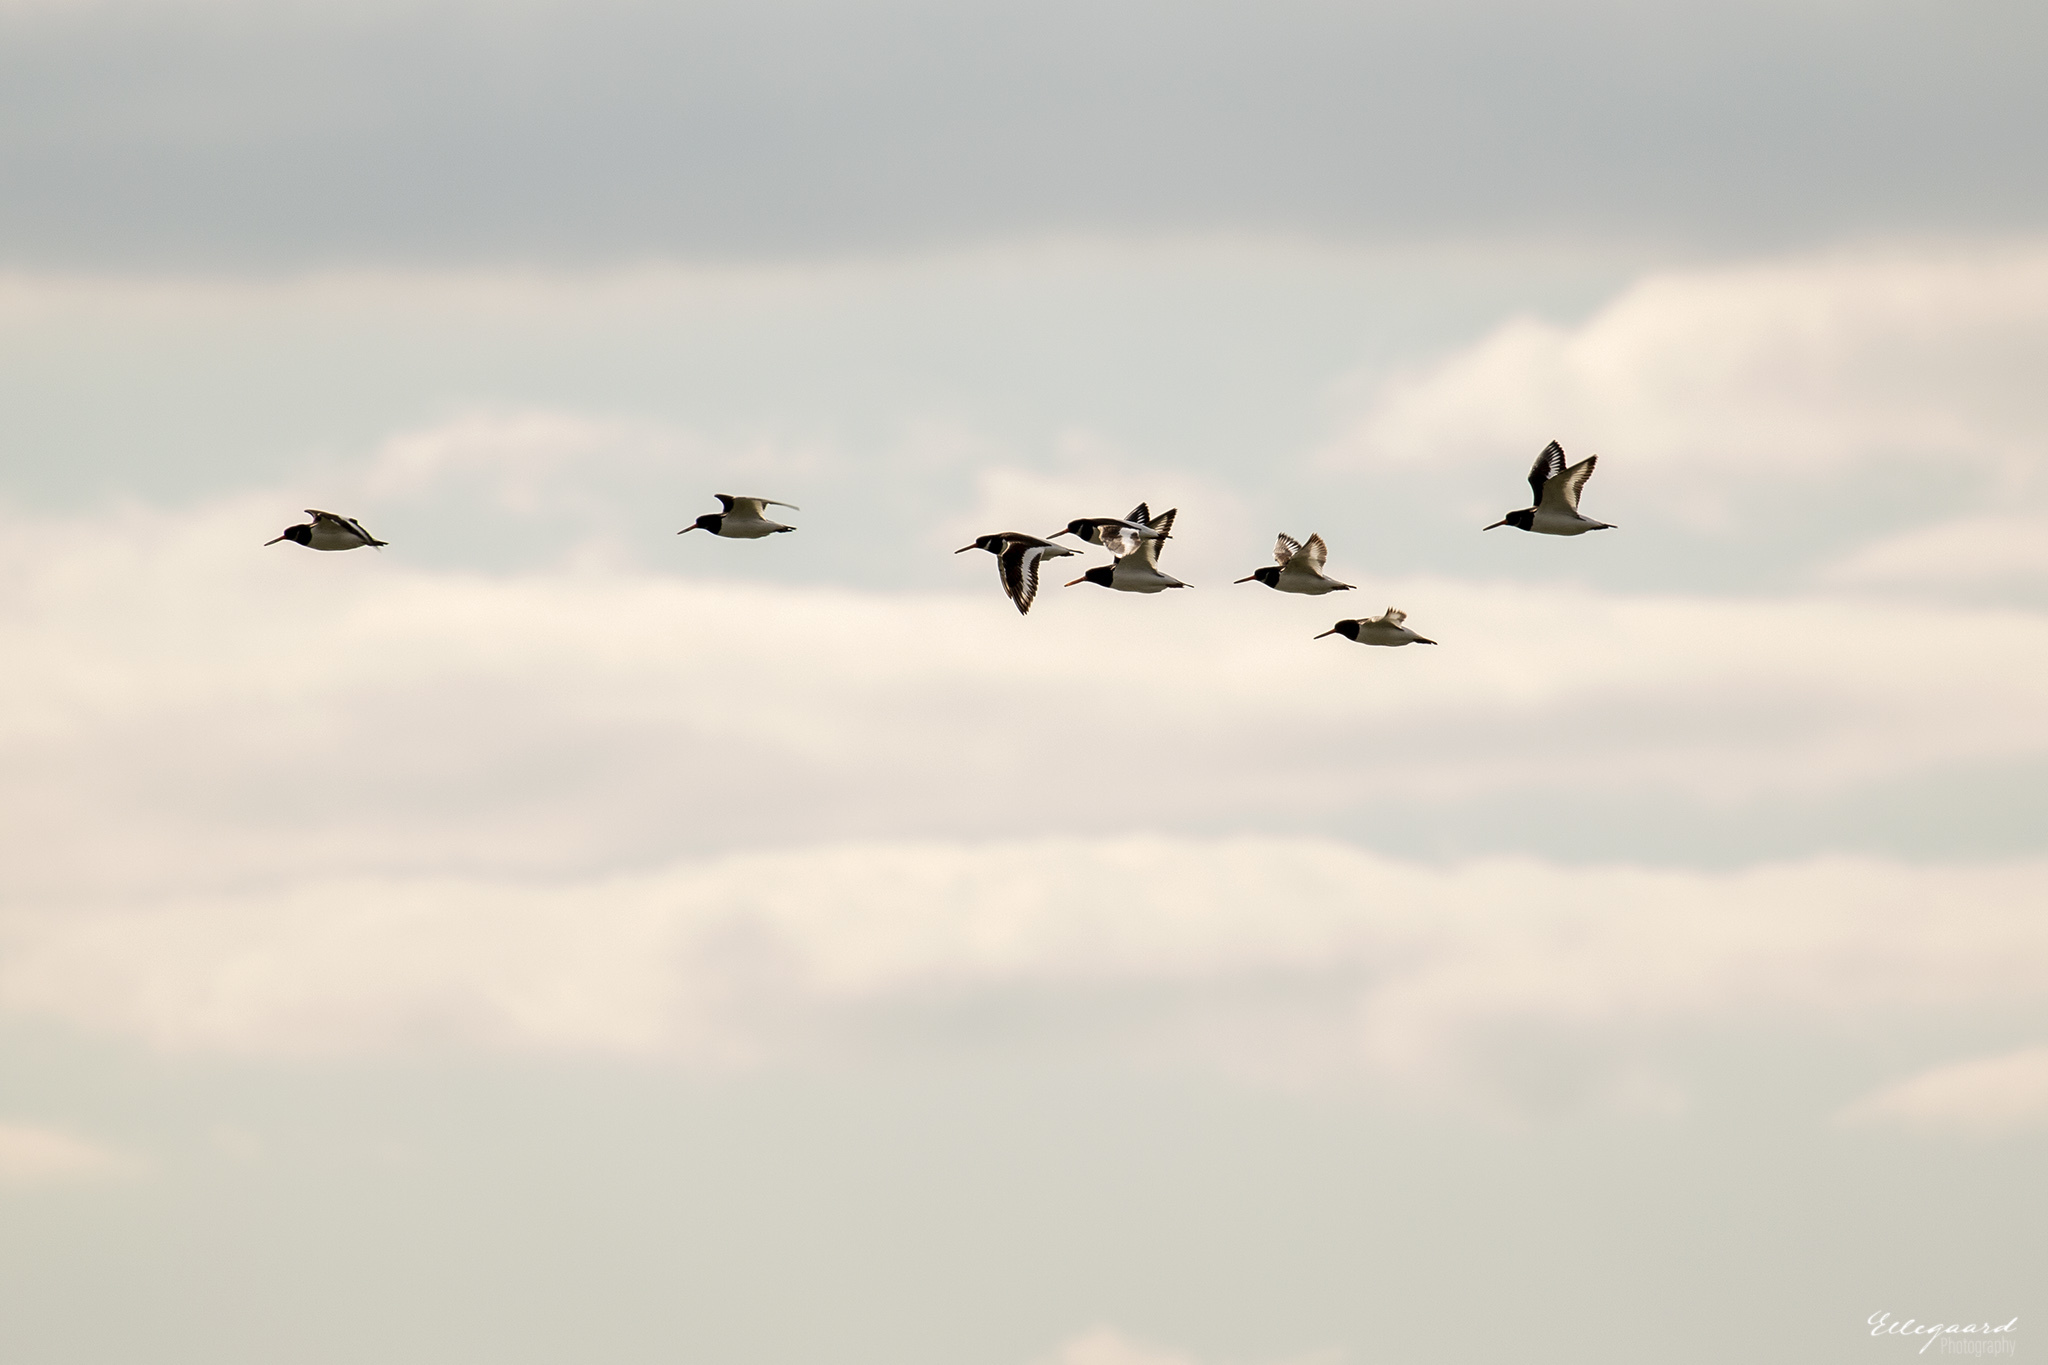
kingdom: Animalia
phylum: Chordata
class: Aves
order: Charadriiformes
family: Haematopodidae
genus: Haematopus
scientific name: Haematopus ostralegus
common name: Eurasian oystercatcher
